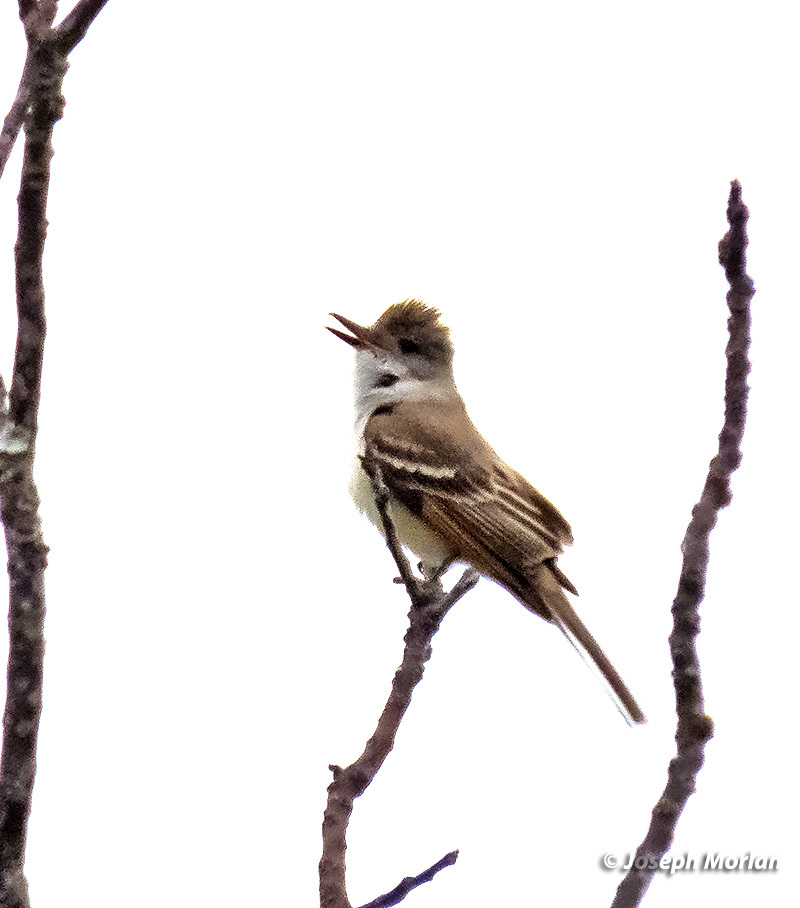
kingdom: Animalia
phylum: Chordata
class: Aves
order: Passeriformes
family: Tyrannidae
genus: Myiarchus
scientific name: Myiarchus cinerascens
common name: Ash-throated flycatcher
